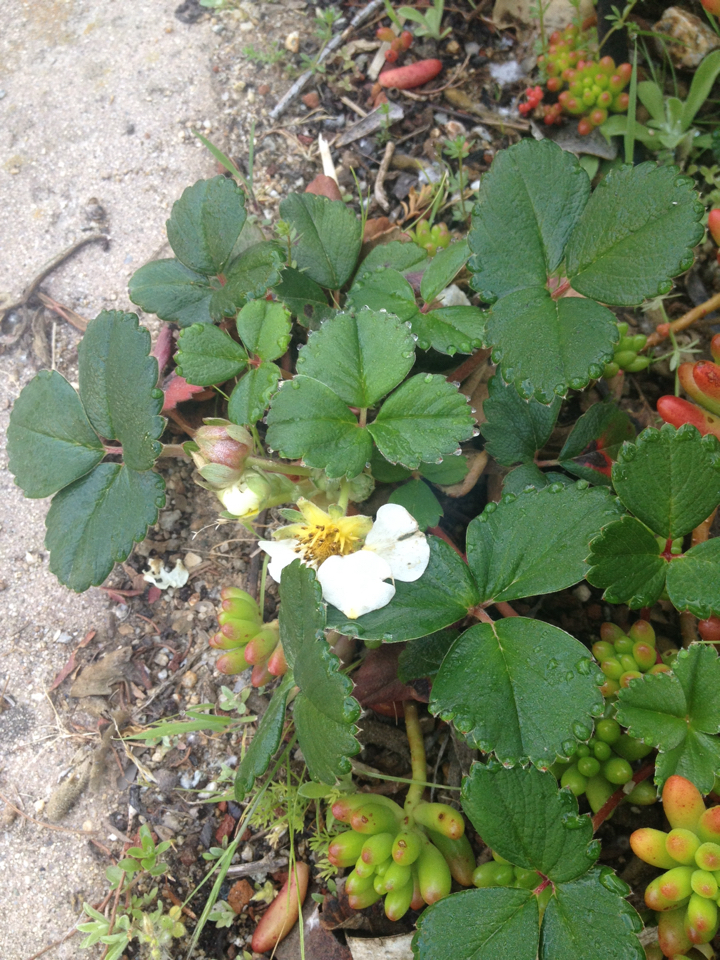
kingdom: Plantae
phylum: Tracheophyta
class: Magnoliopsida
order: Rosales
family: Rosaceae
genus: Fragaria
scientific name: Fragaria chiloensis
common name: Beach strawberry
